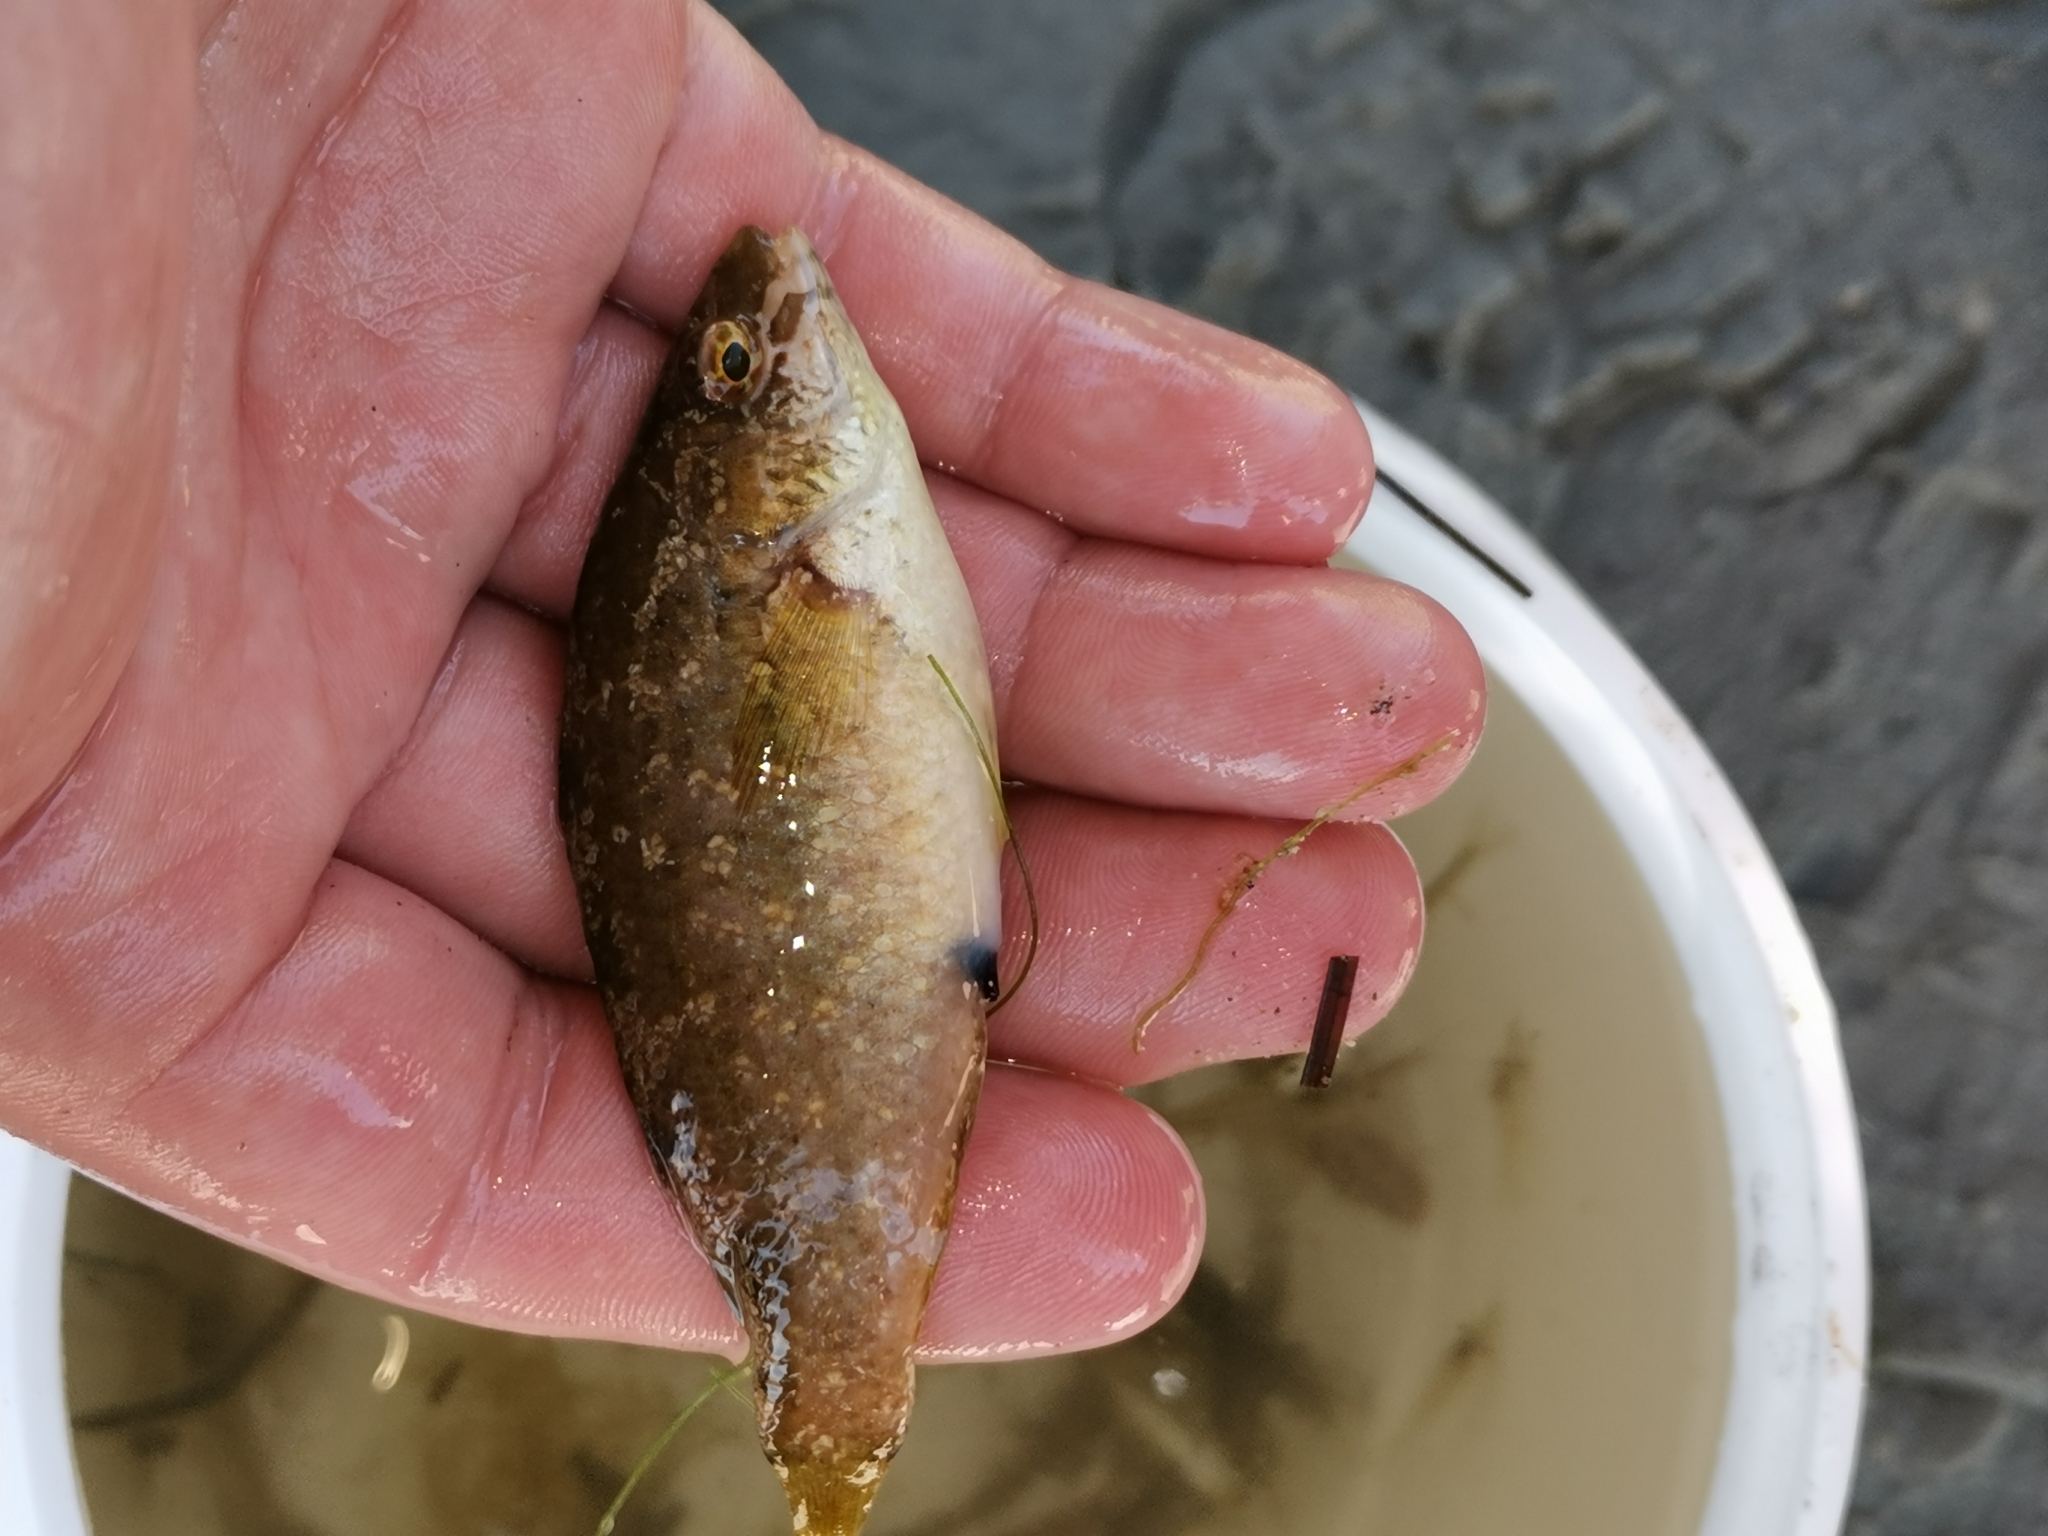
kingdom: Animalia
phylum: Chordata
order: Perciformes
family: Labridae
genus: Symphodus
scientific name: Symphodus cinereus
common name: Grey wrasse
